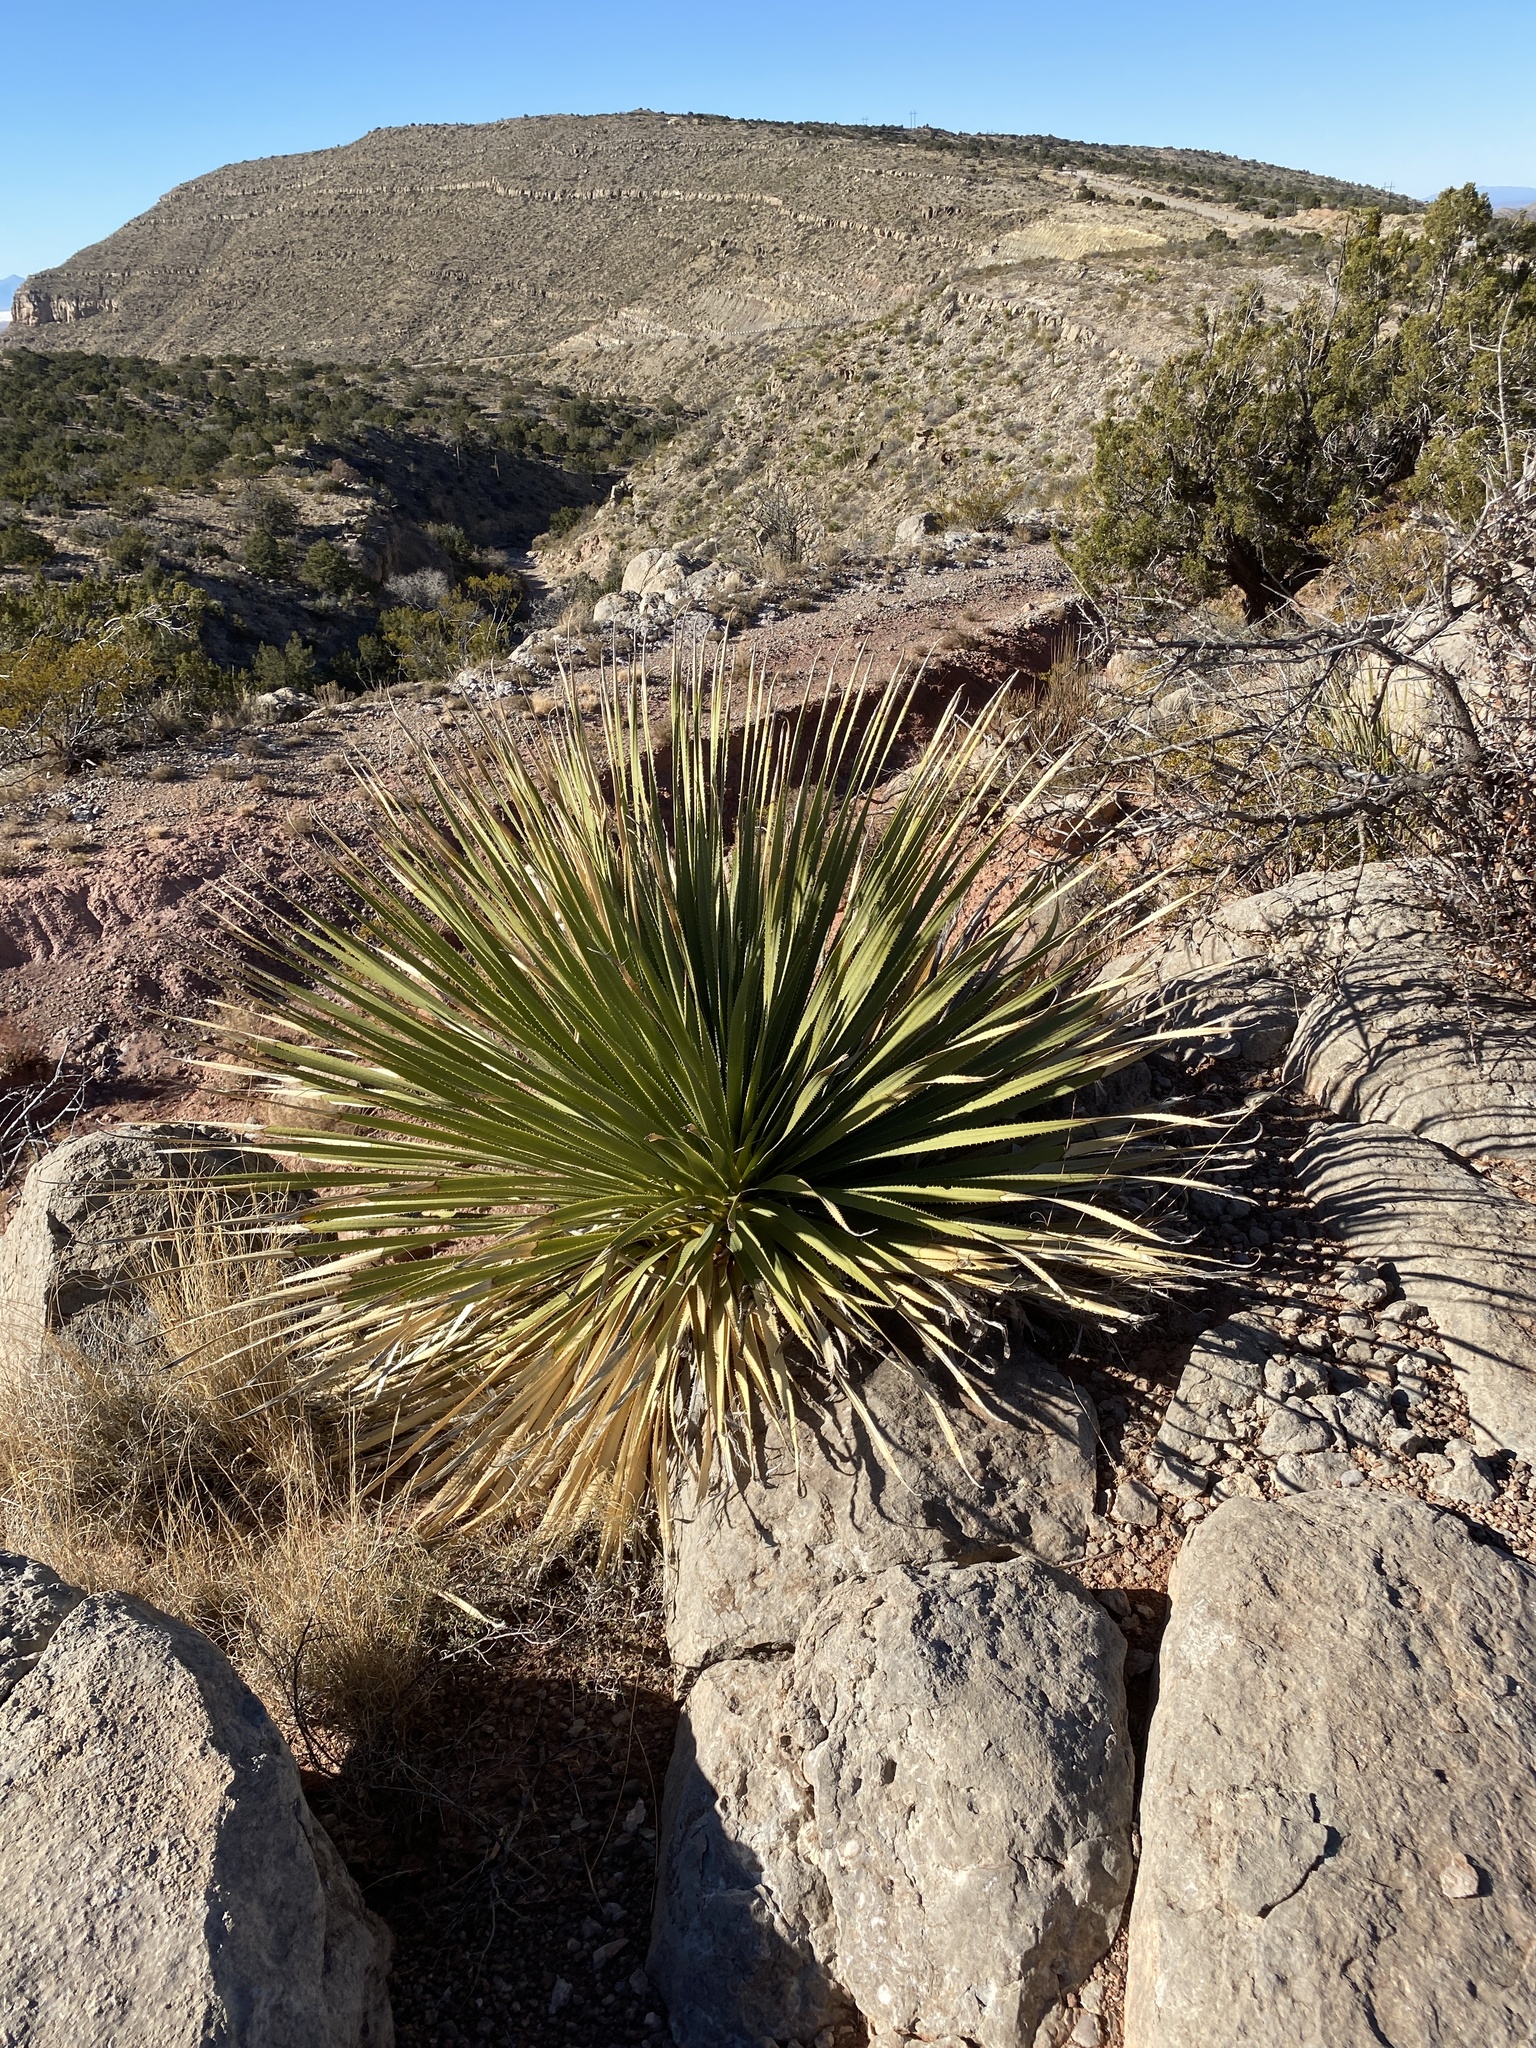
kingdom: Plantae
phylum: Tracheophyta
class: Liliopsida
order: Asparagales
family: Asparagaceae
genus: Dasylirion
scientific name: Dasylirion wheeleri
